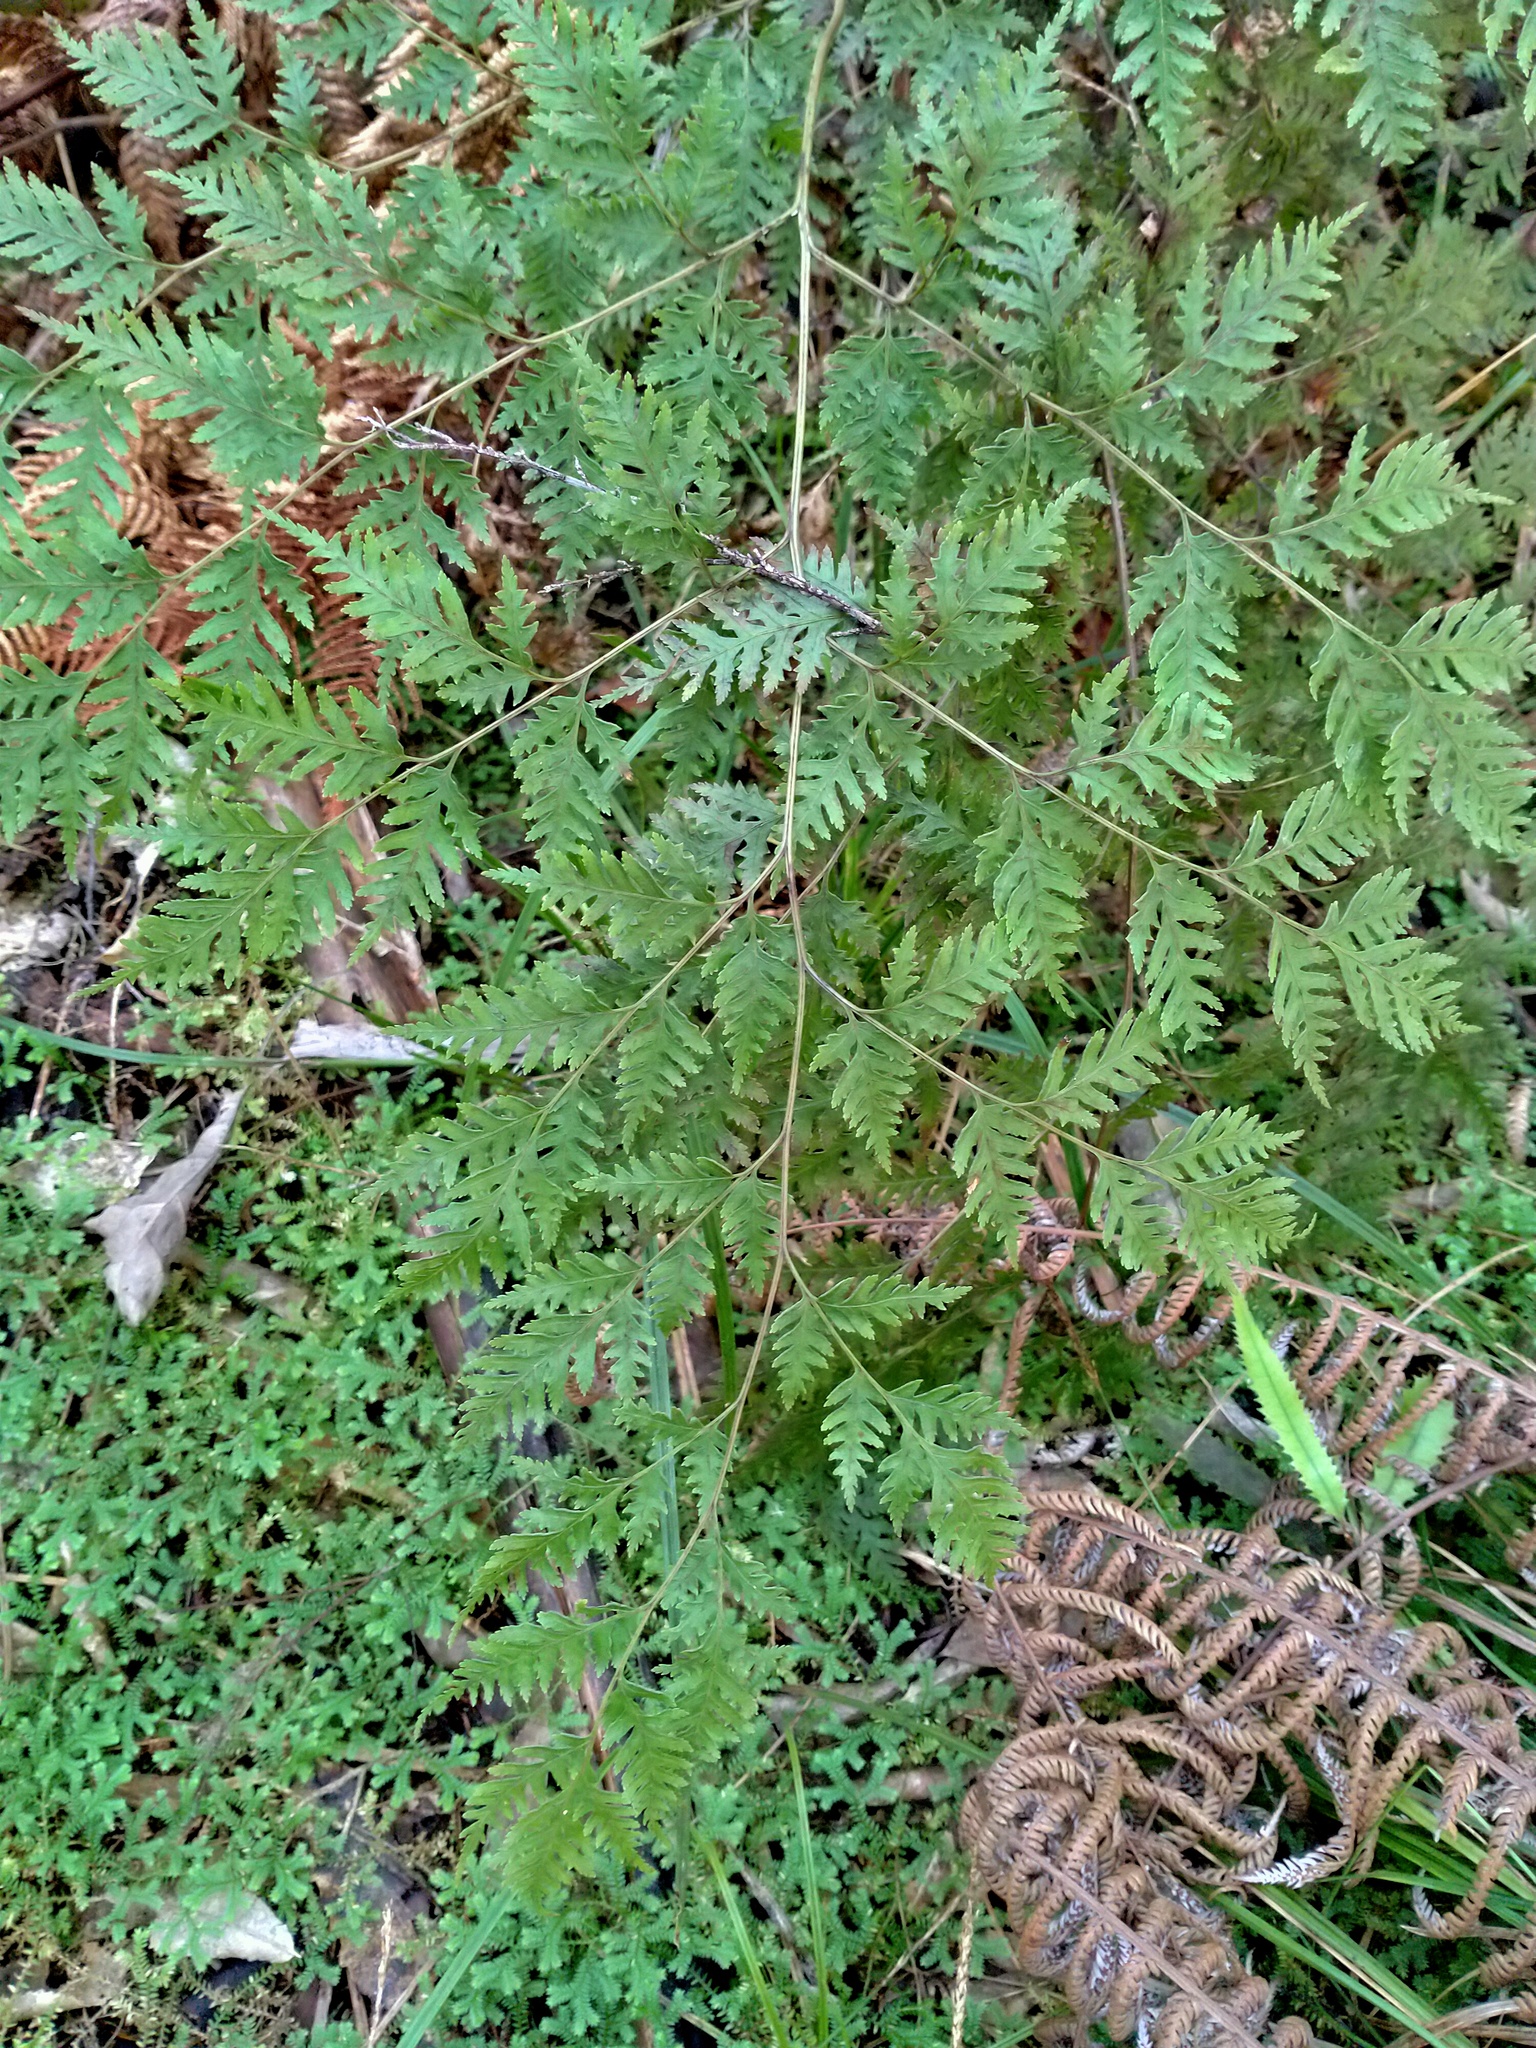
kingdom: Plantae
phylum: Tracheophyta
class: Polypodiopsida
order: Polypodiales
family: Pteridaceae
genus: Pteris
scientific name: Pteris macilenta
